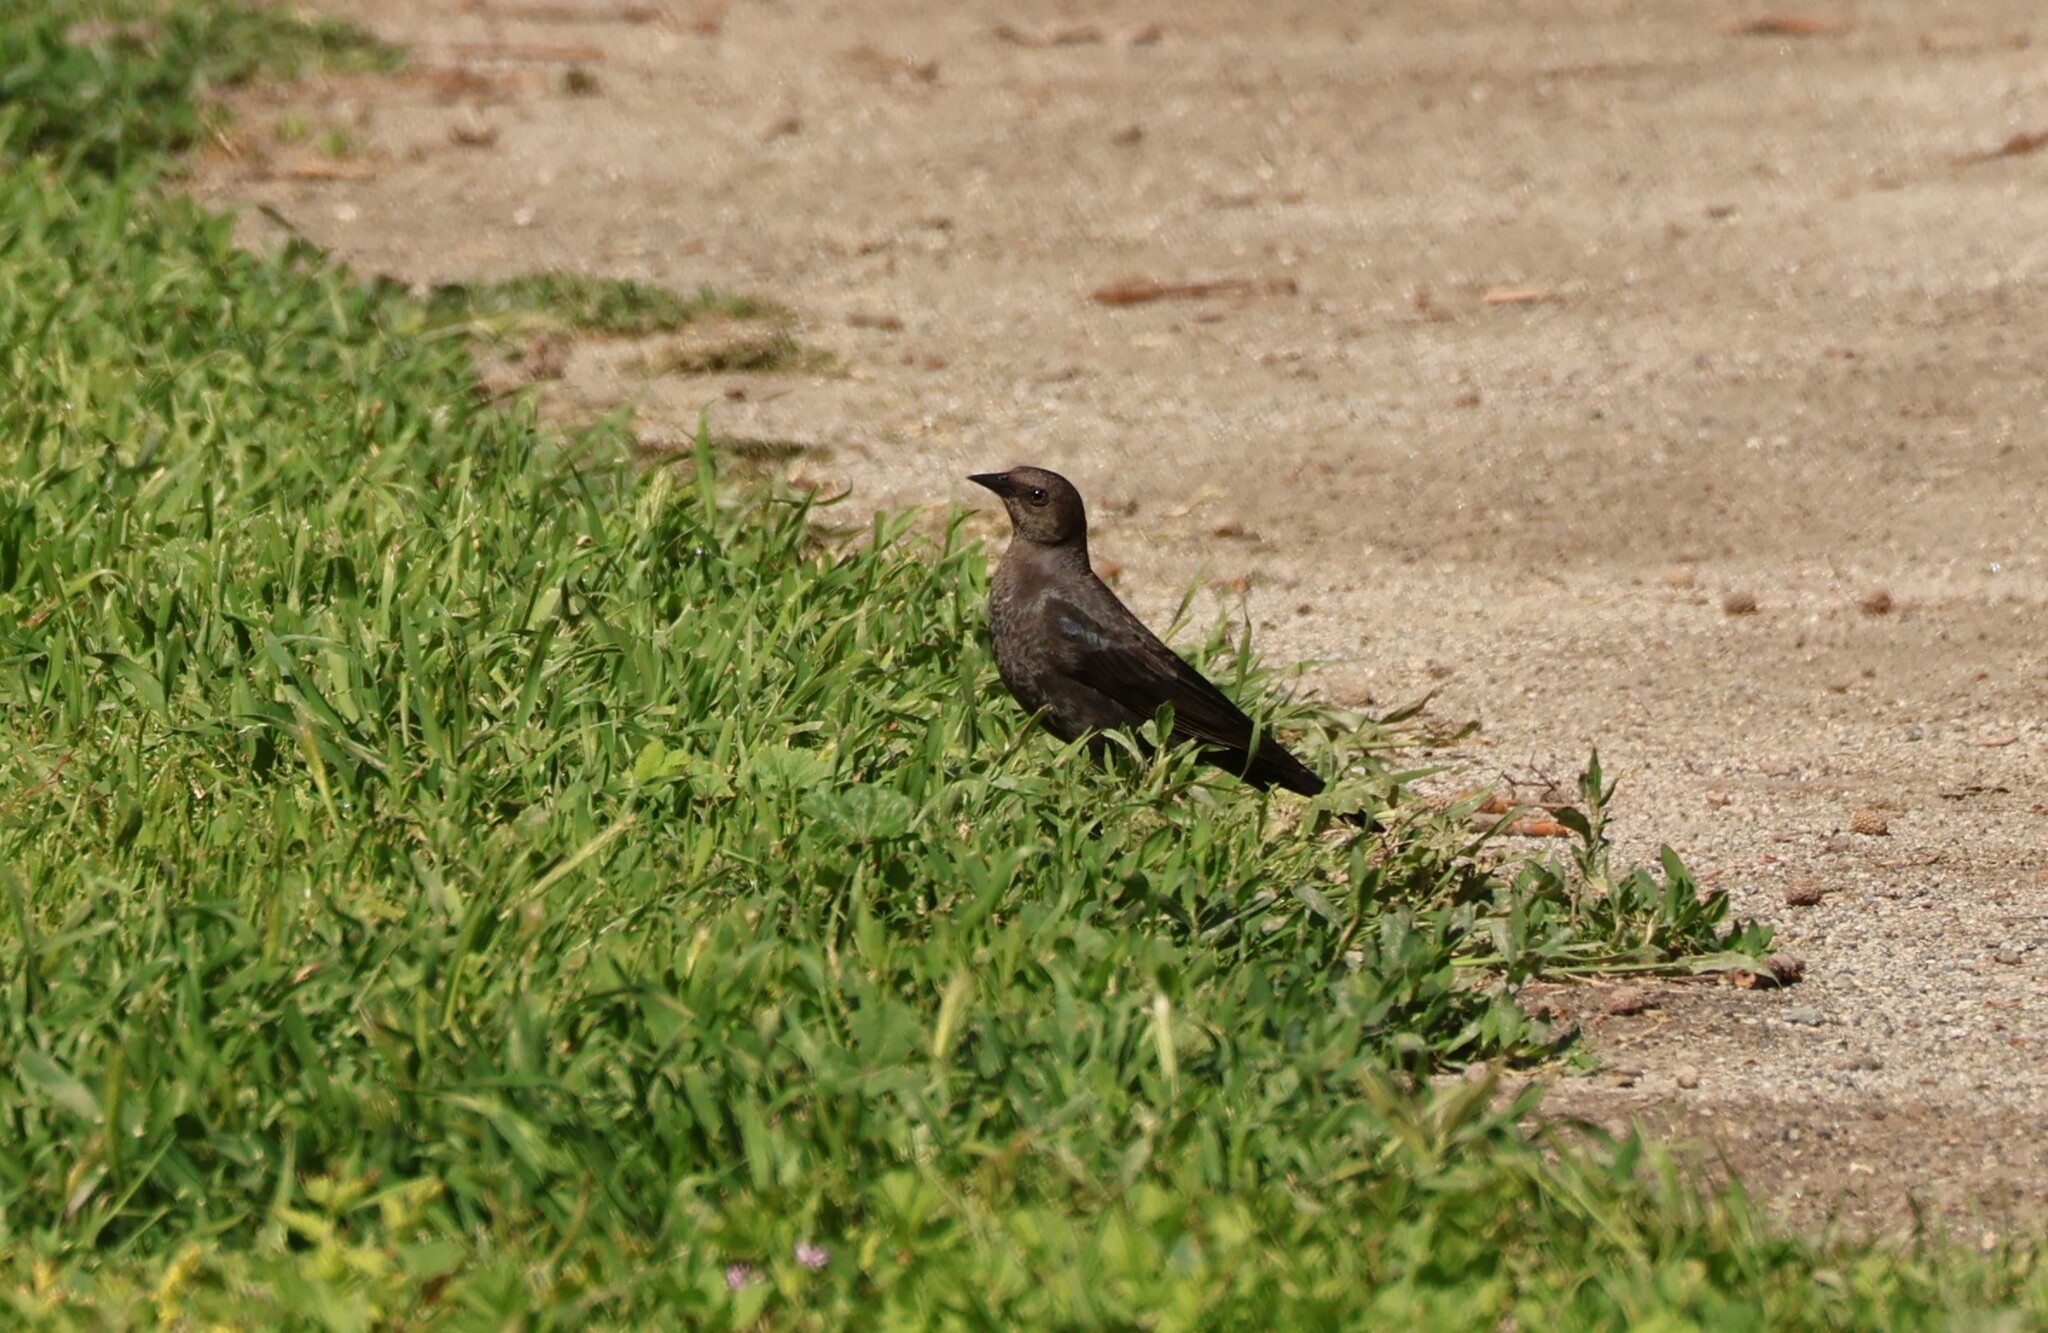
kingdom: Animalia
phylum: Chordata
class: Aves
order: Passeriformes
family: Icteridae
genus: Euphagus
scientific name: Euphagus cyanocephalus
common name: Brewer's blackbird
